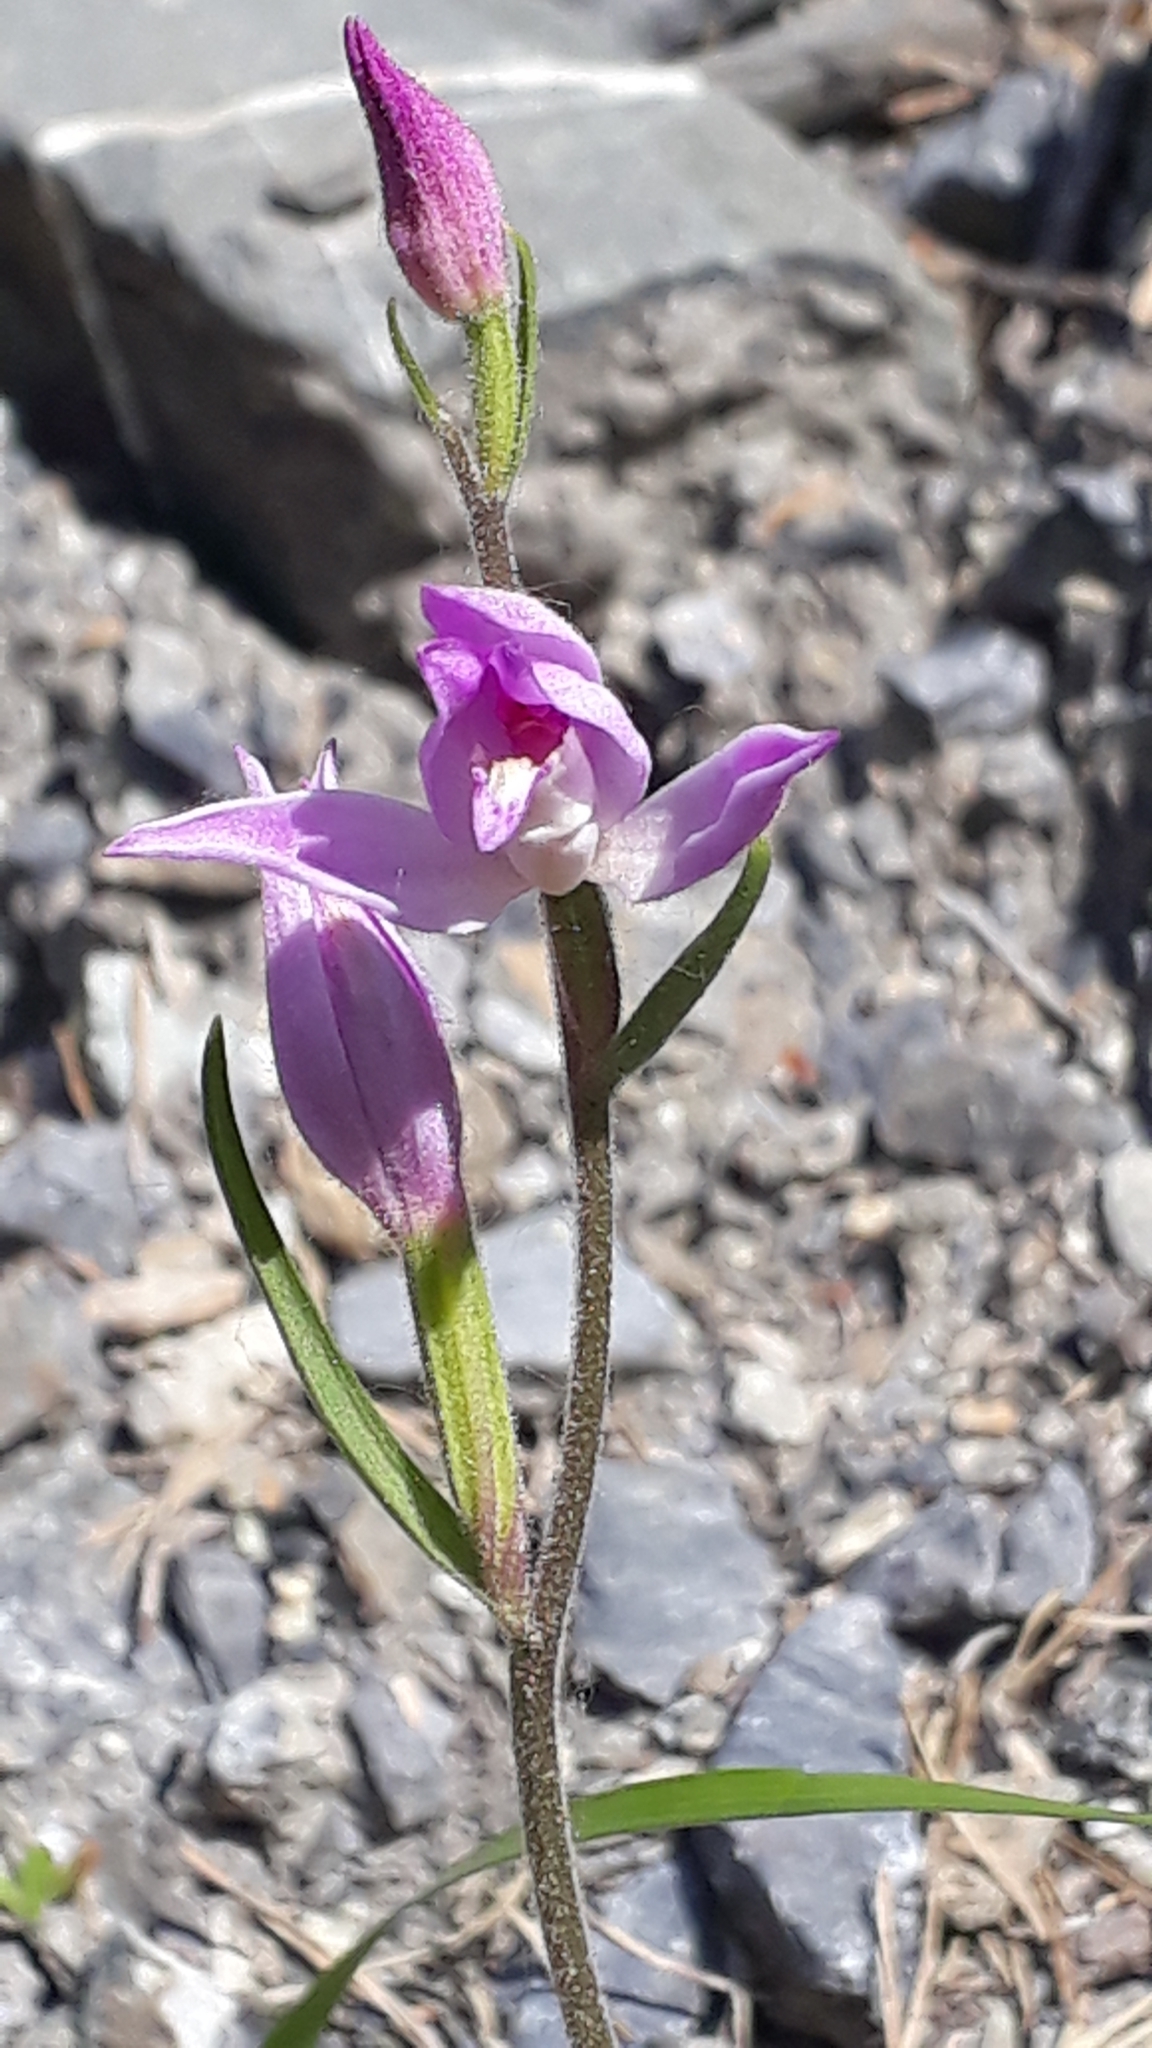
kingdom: Plantae
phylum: Tracheophyta
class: Liliopsida
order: Asparagales
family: Orchidaceae
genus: Cephalanthera
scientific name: Cephalanthera rubra
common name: Red helleborine
